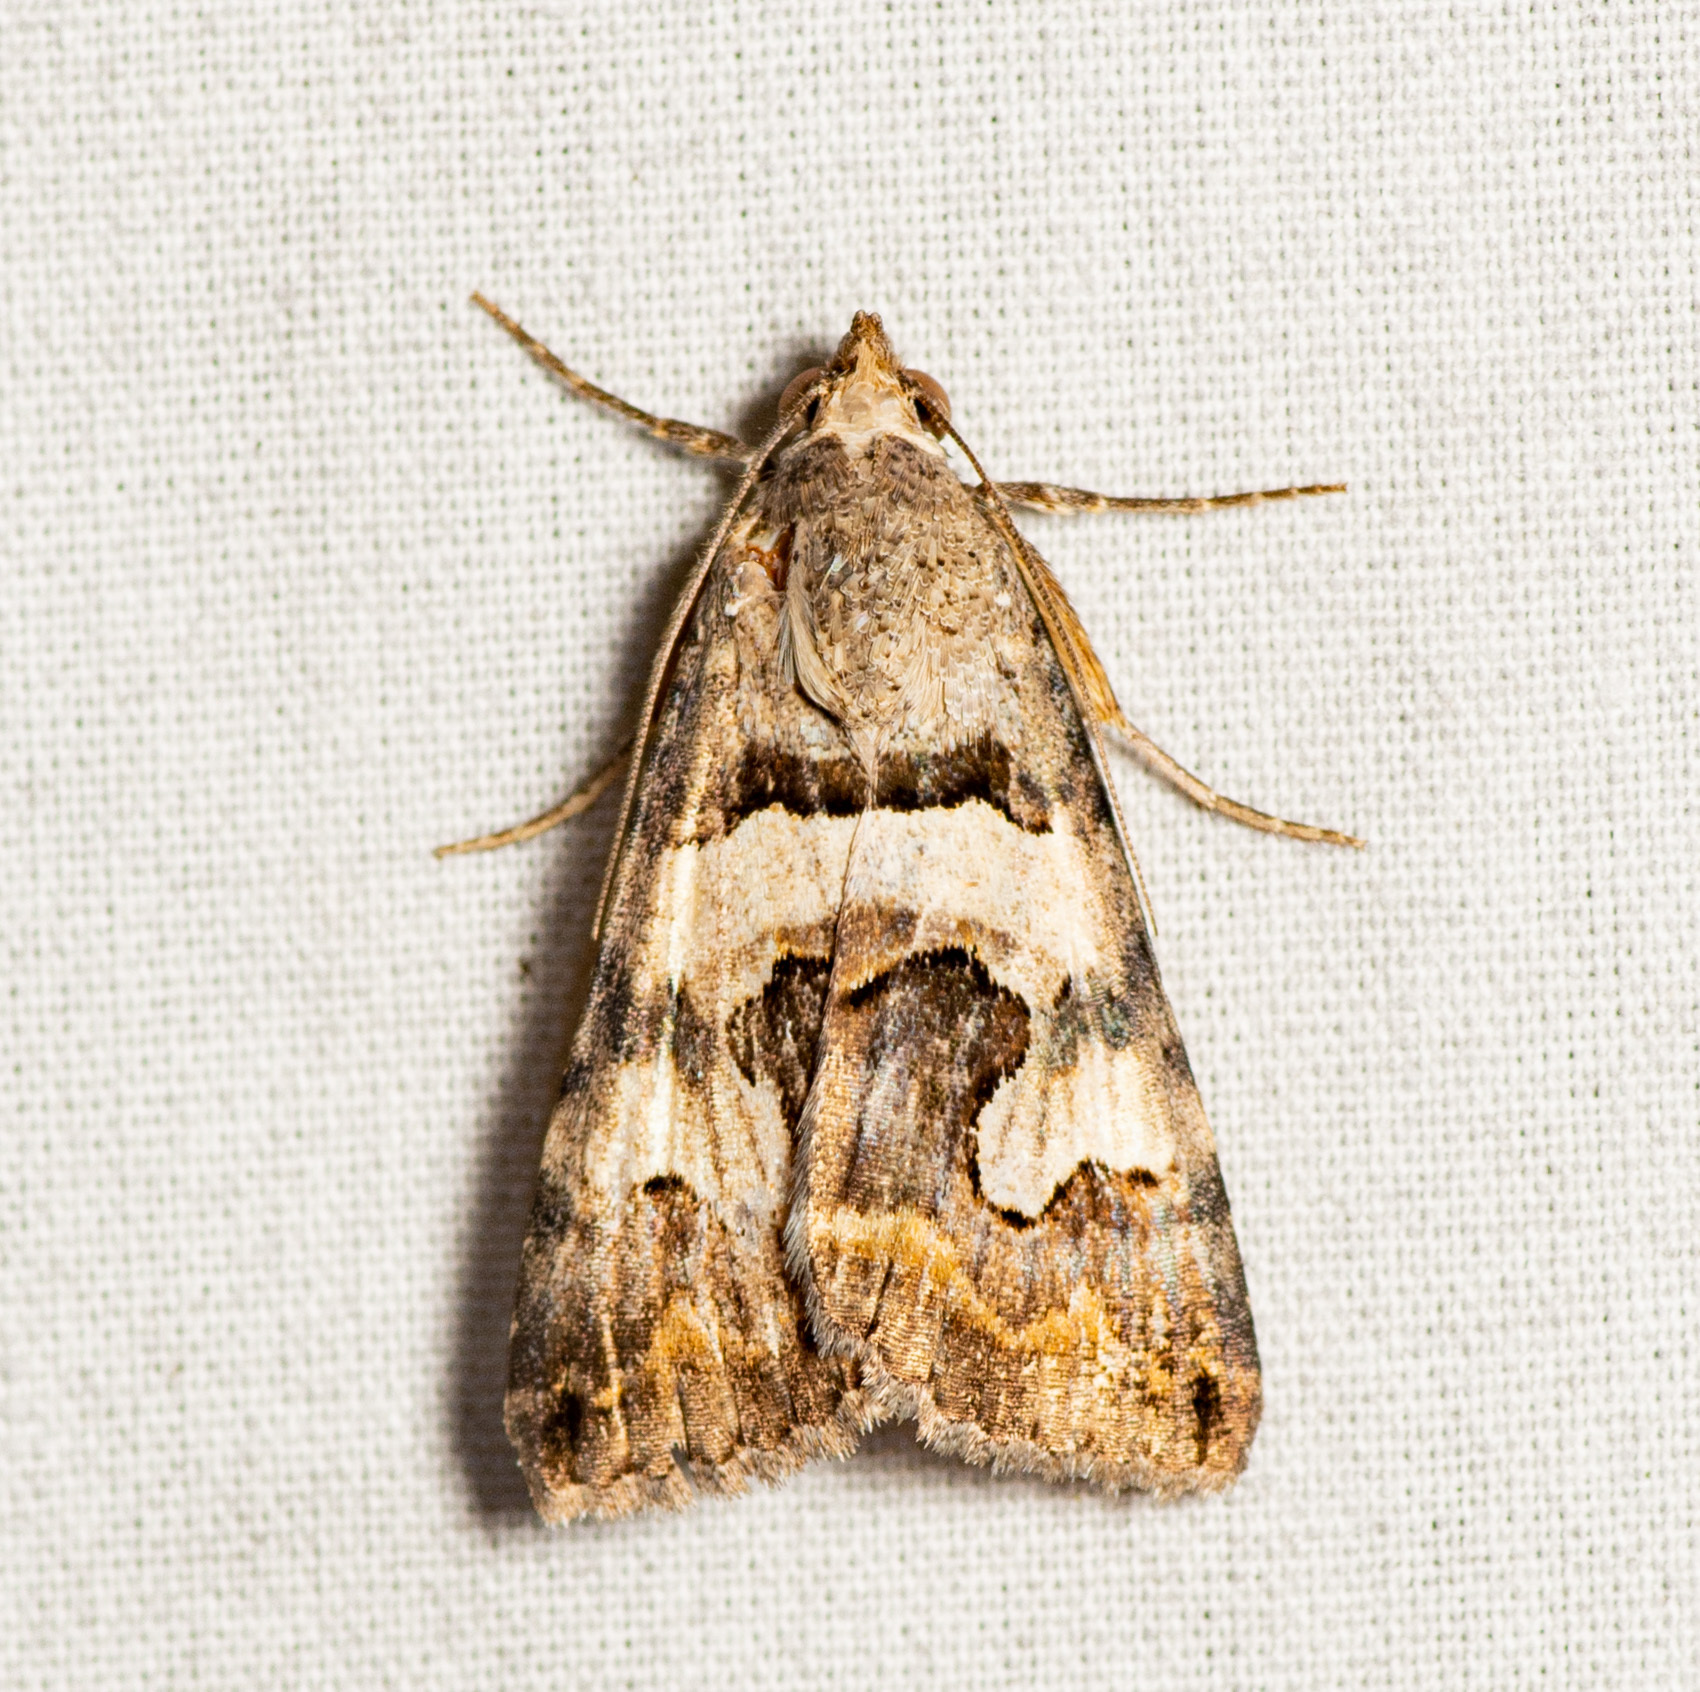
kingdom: Animalia
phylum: Arthropoda
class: Insecta
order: Lepidoptera
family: Erebidae
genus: Bulia
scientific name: Bulia deducta
